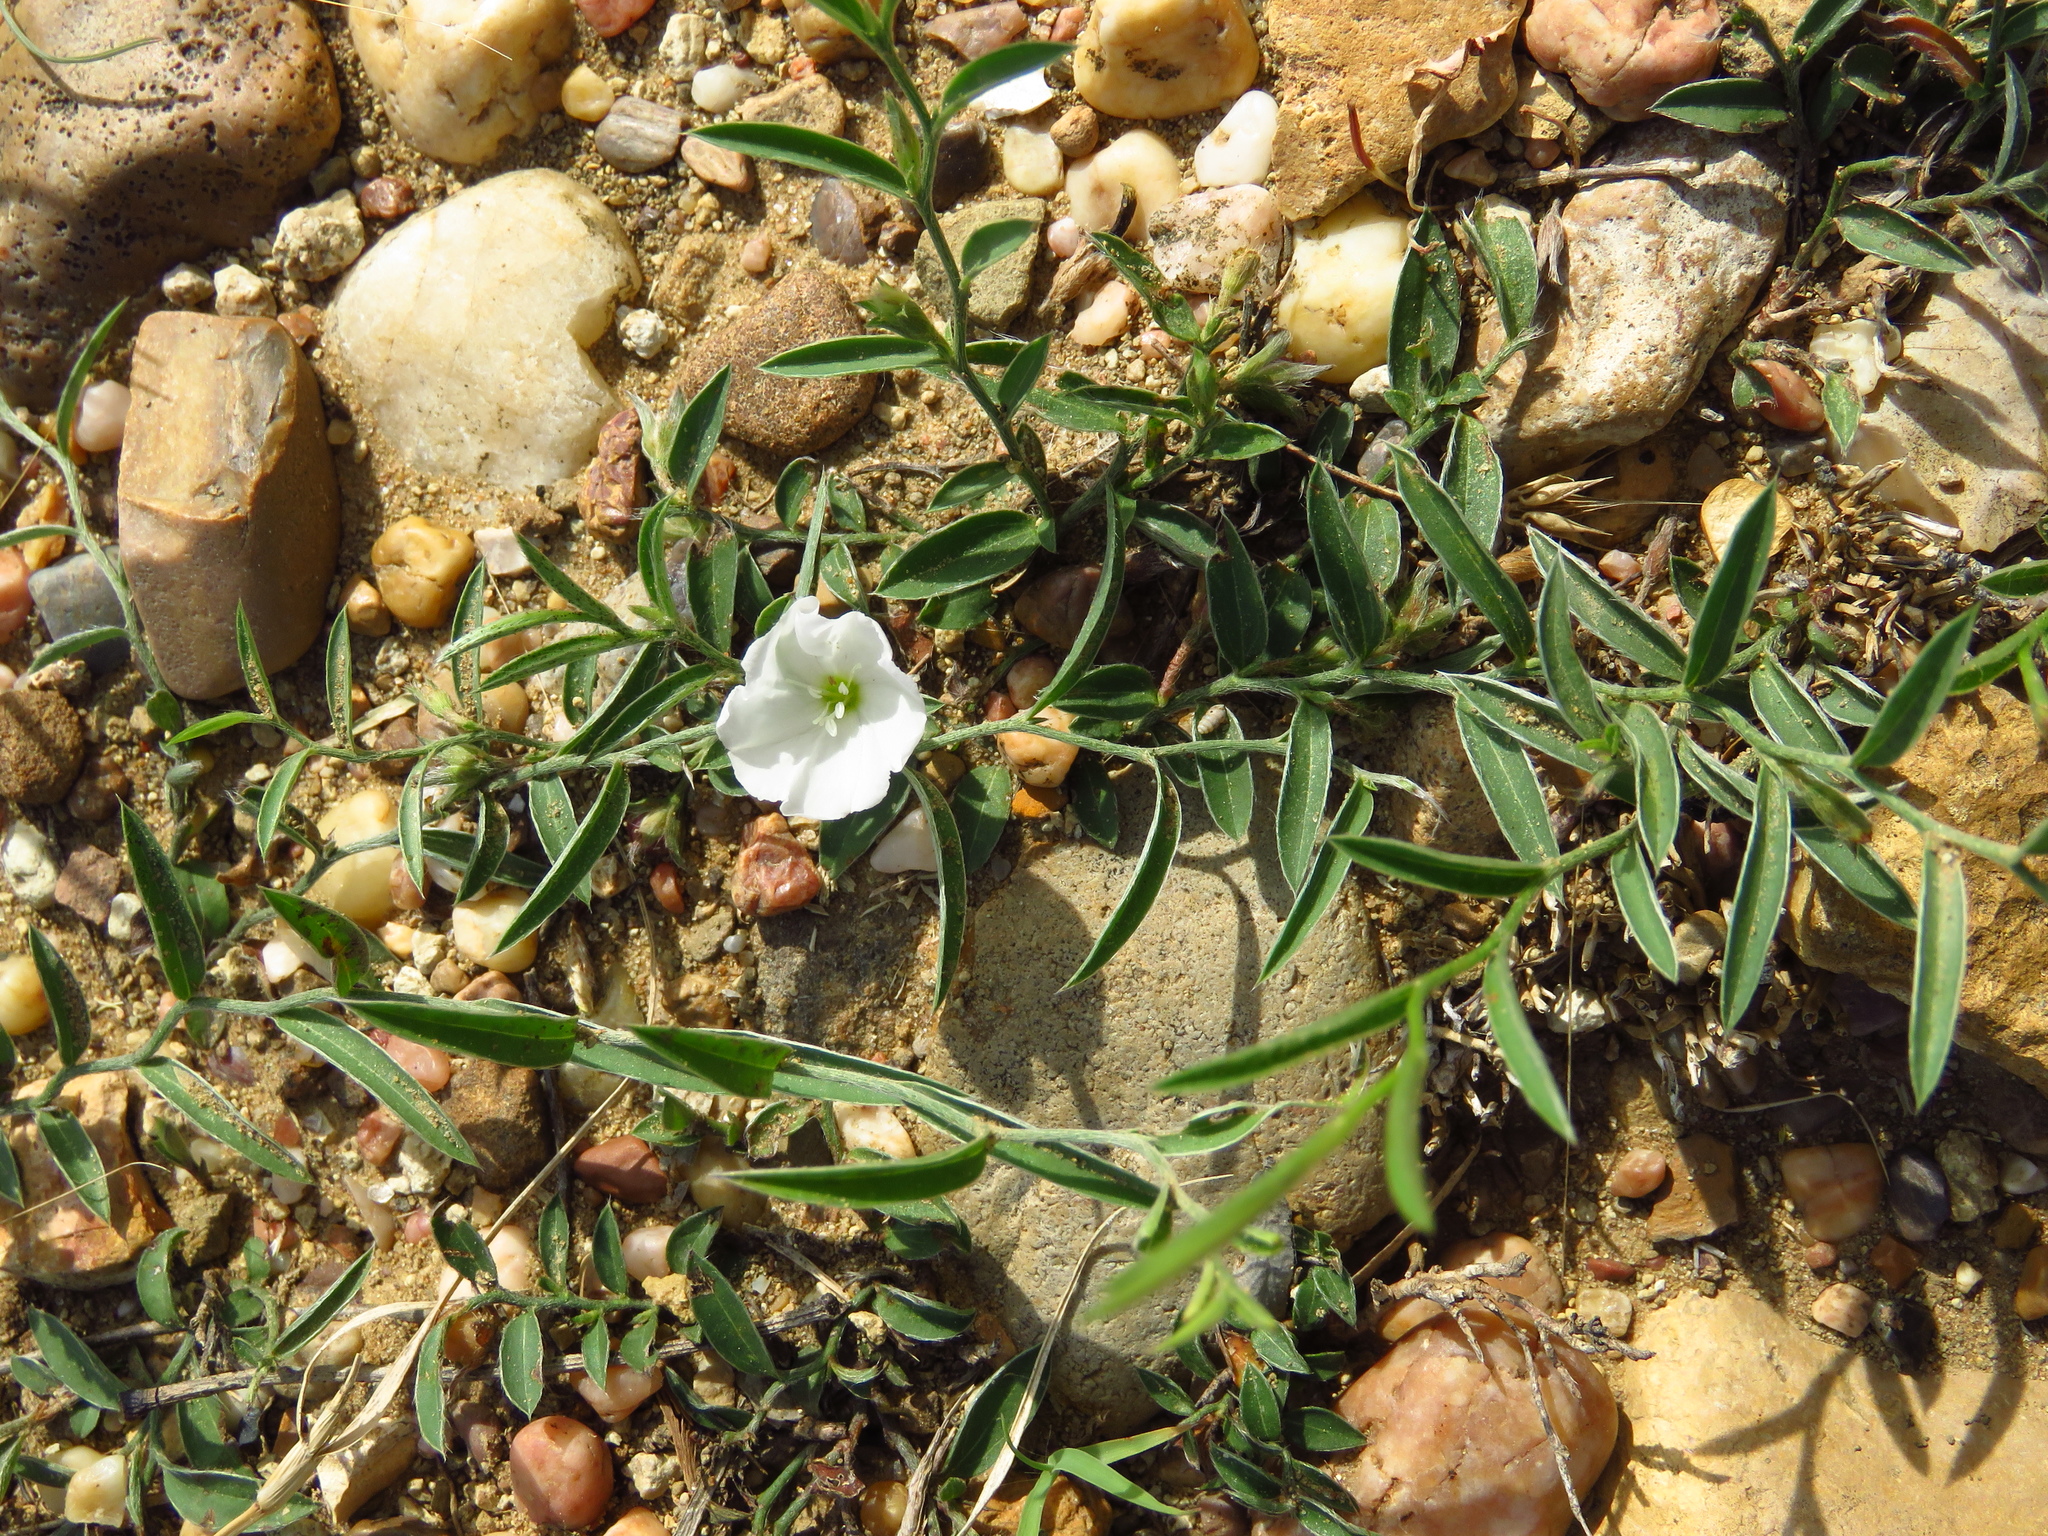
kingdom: Plantae
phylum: Tracheophyta
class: Magnoliopsida
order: Solanales
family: Convolvulaceae
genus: Evolvulus
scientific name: Evolvulus sericeus
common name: Blue dots
